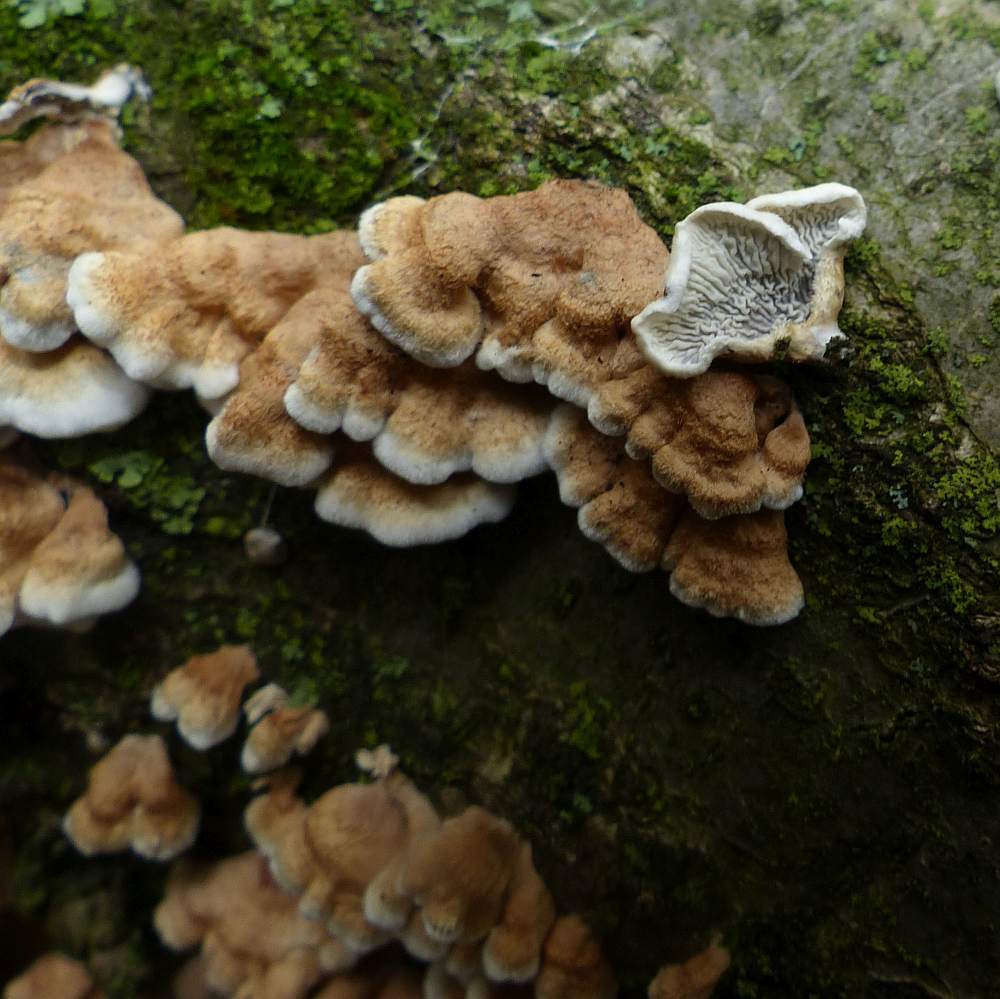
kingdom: Fungi
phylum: Basidiomycota
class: Agaricomycetes
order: Amylocorticiales
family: Amylocorticiaceae
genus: Plicaturopsis
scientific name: Plicaturopsis crispa
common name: Crimped gill
